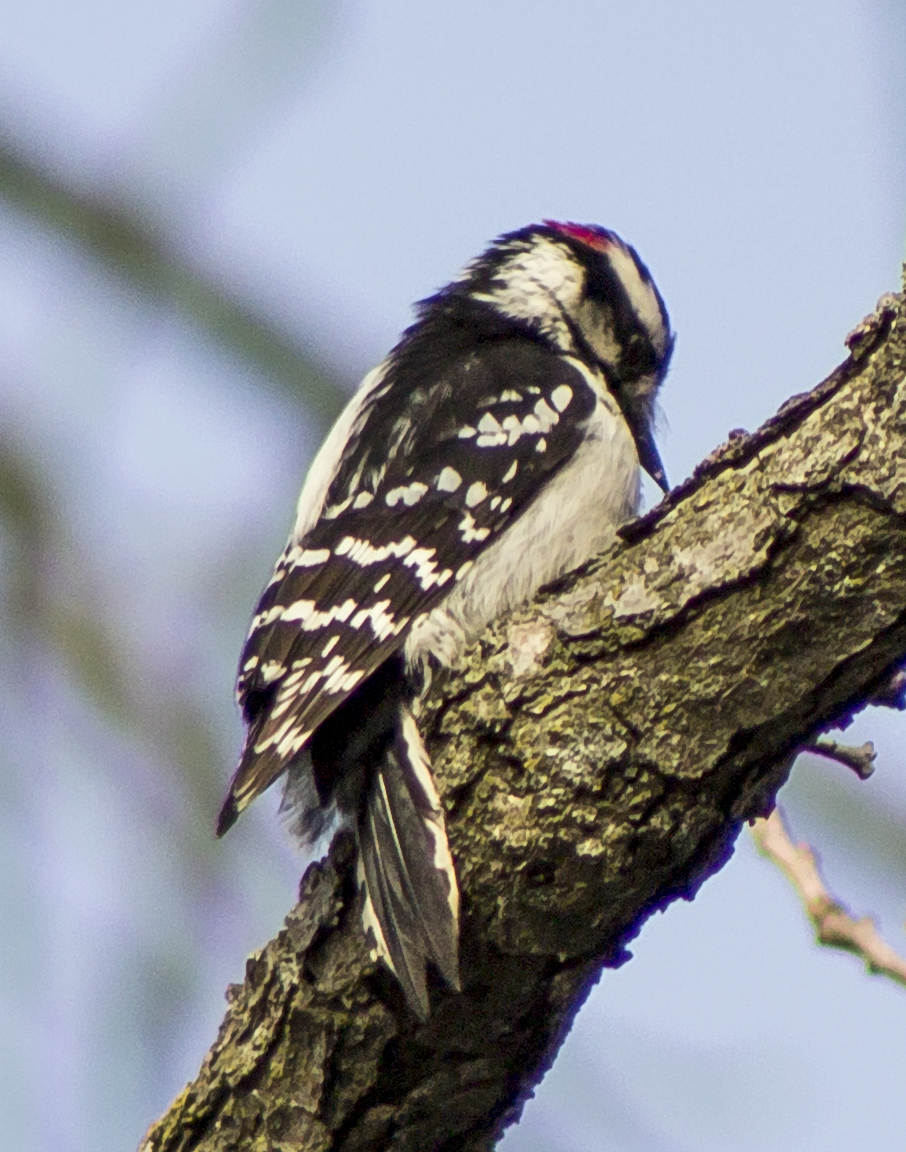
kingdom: Animalia
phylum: Chordata
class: Aves
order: Piciformes
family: Picidae
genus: Dryobates
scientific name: Dryobates pubescens
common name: Downy woodpecker
